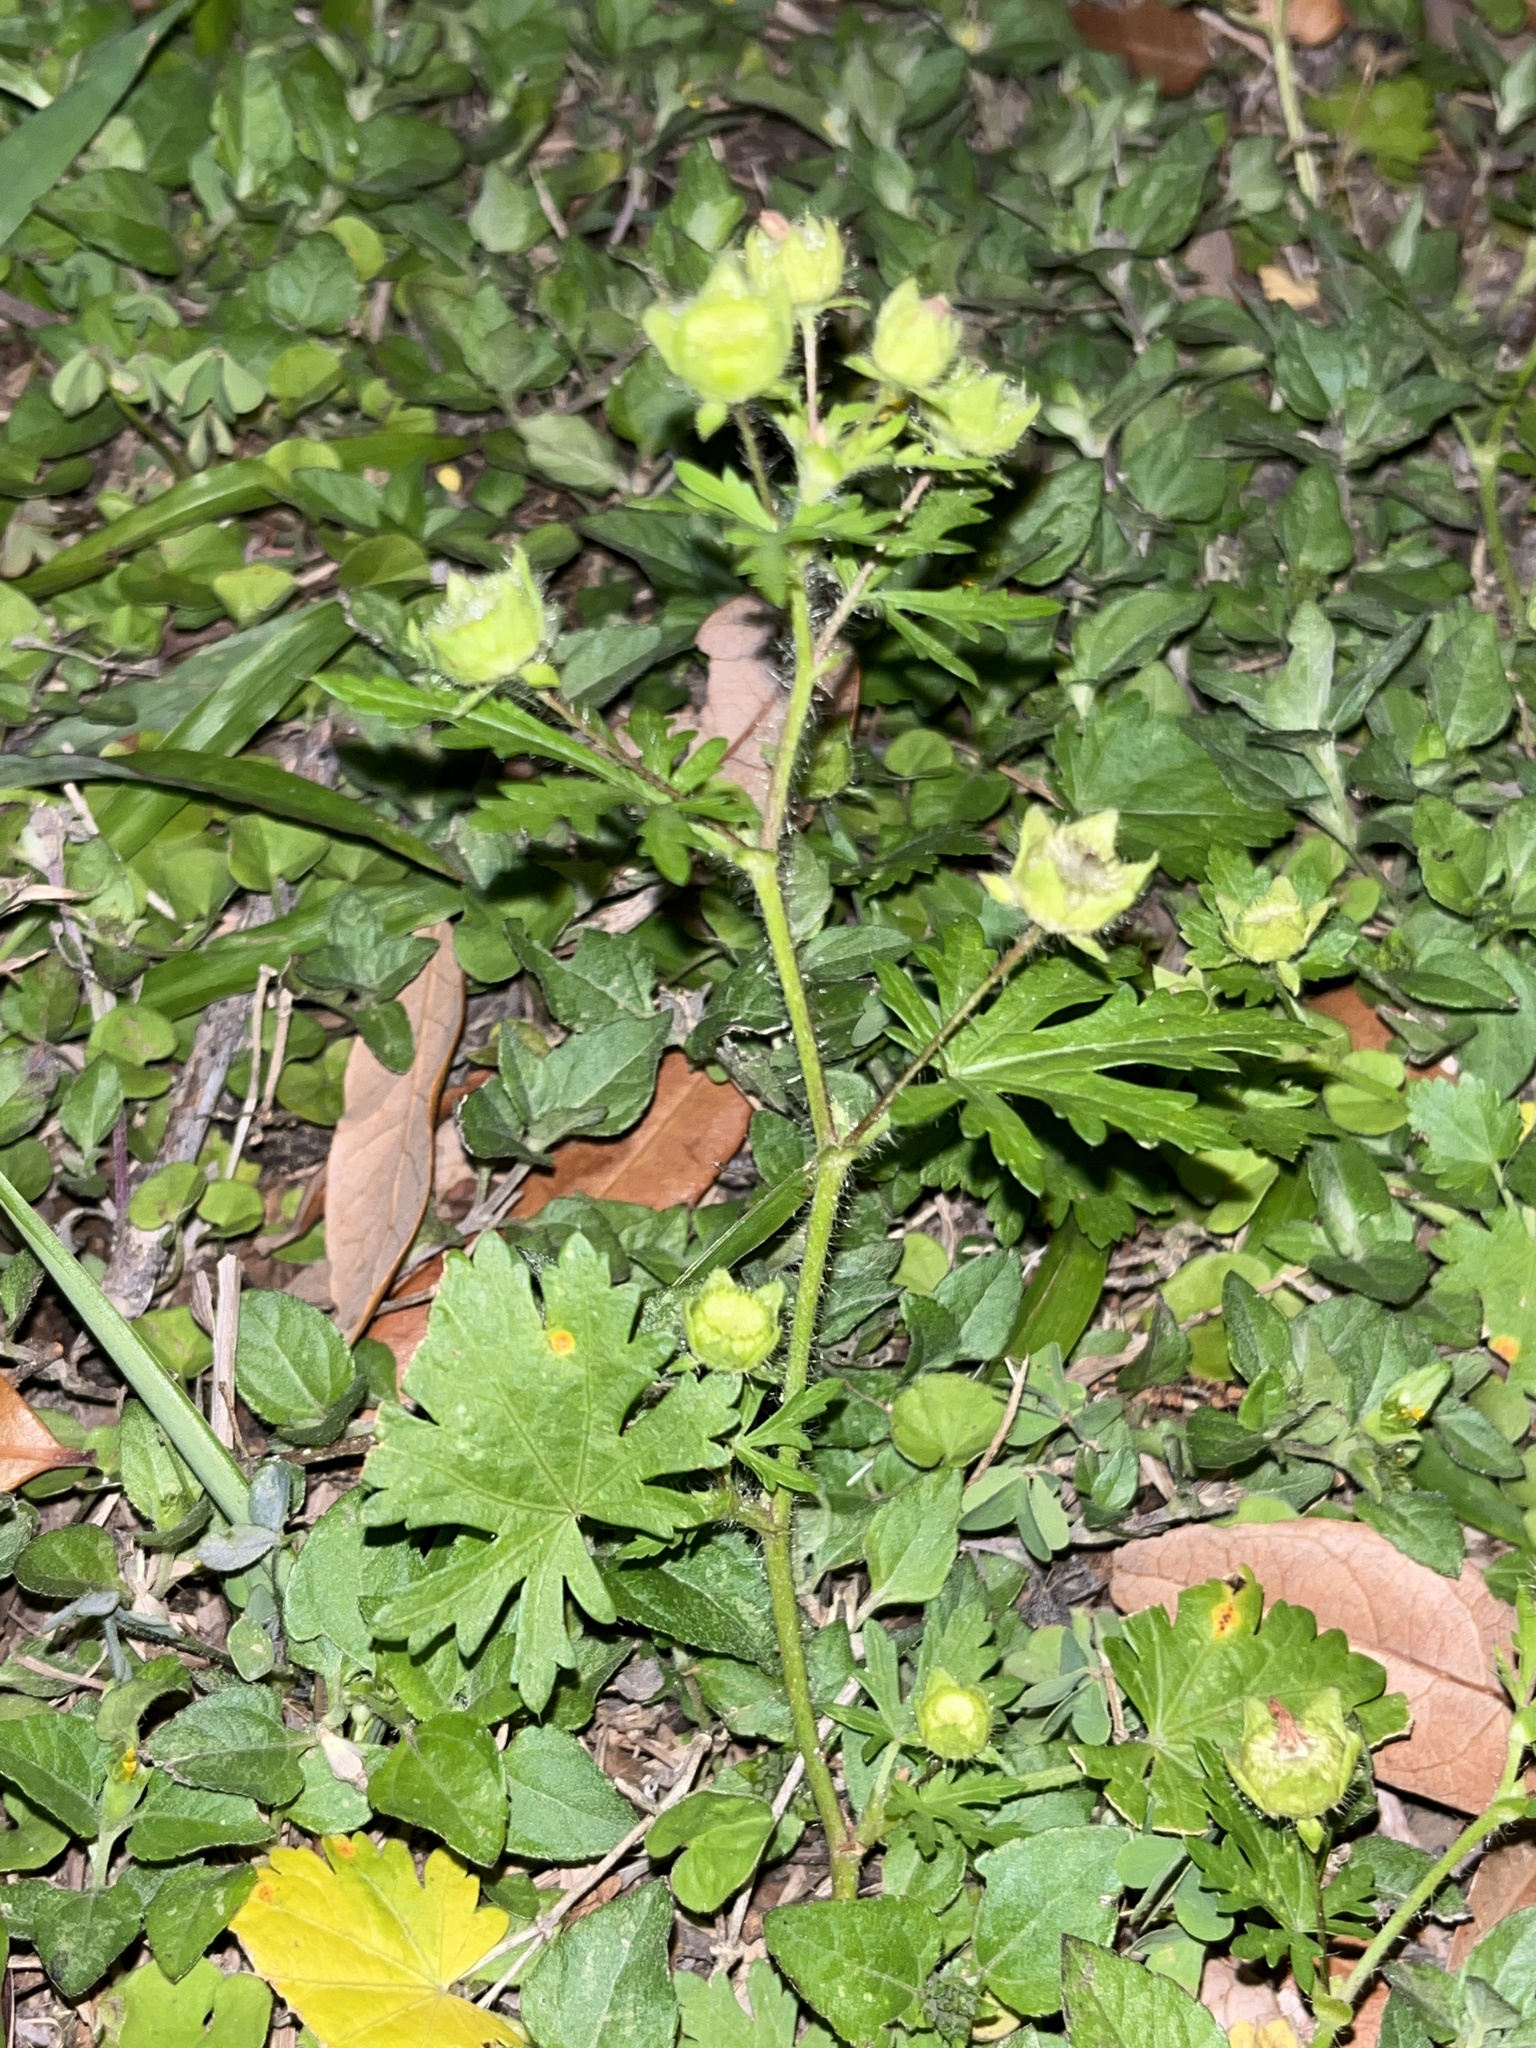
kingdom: Plantae
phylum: Tracheophyta
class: Magnoliopsida
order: Malvales
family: Malvaceae
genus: Modiola
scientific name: Modiola caroliniana
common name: Carolina bristlemallow
